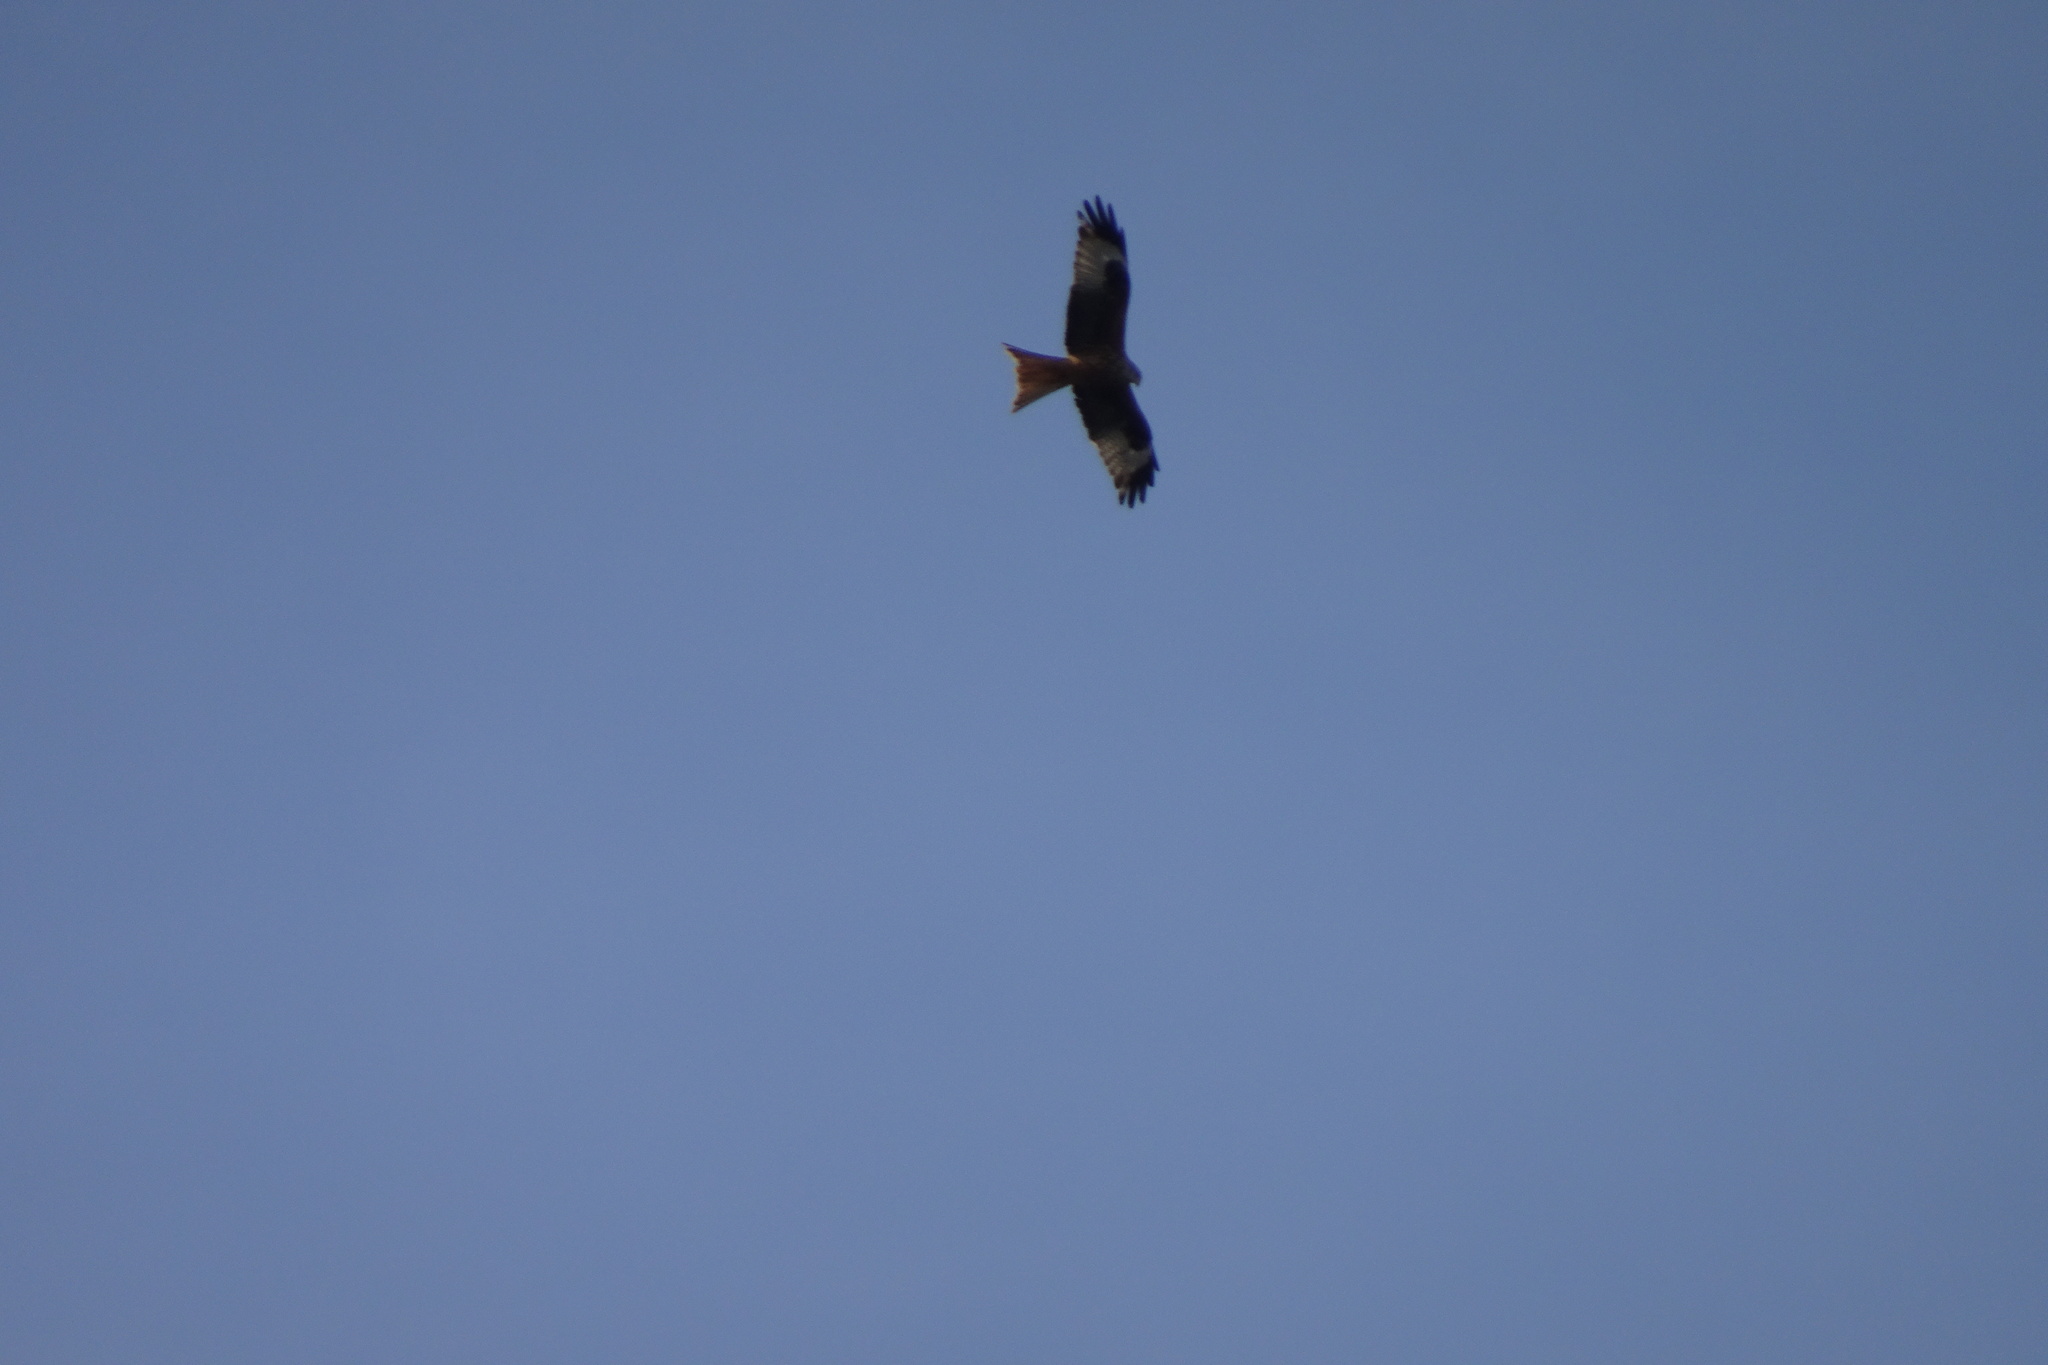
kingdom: Animalia
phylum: Chordata
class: Aves
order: Accipitriformes
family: Accipitridae
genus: Milvus
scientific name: Milvus milvus
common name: Red kite
